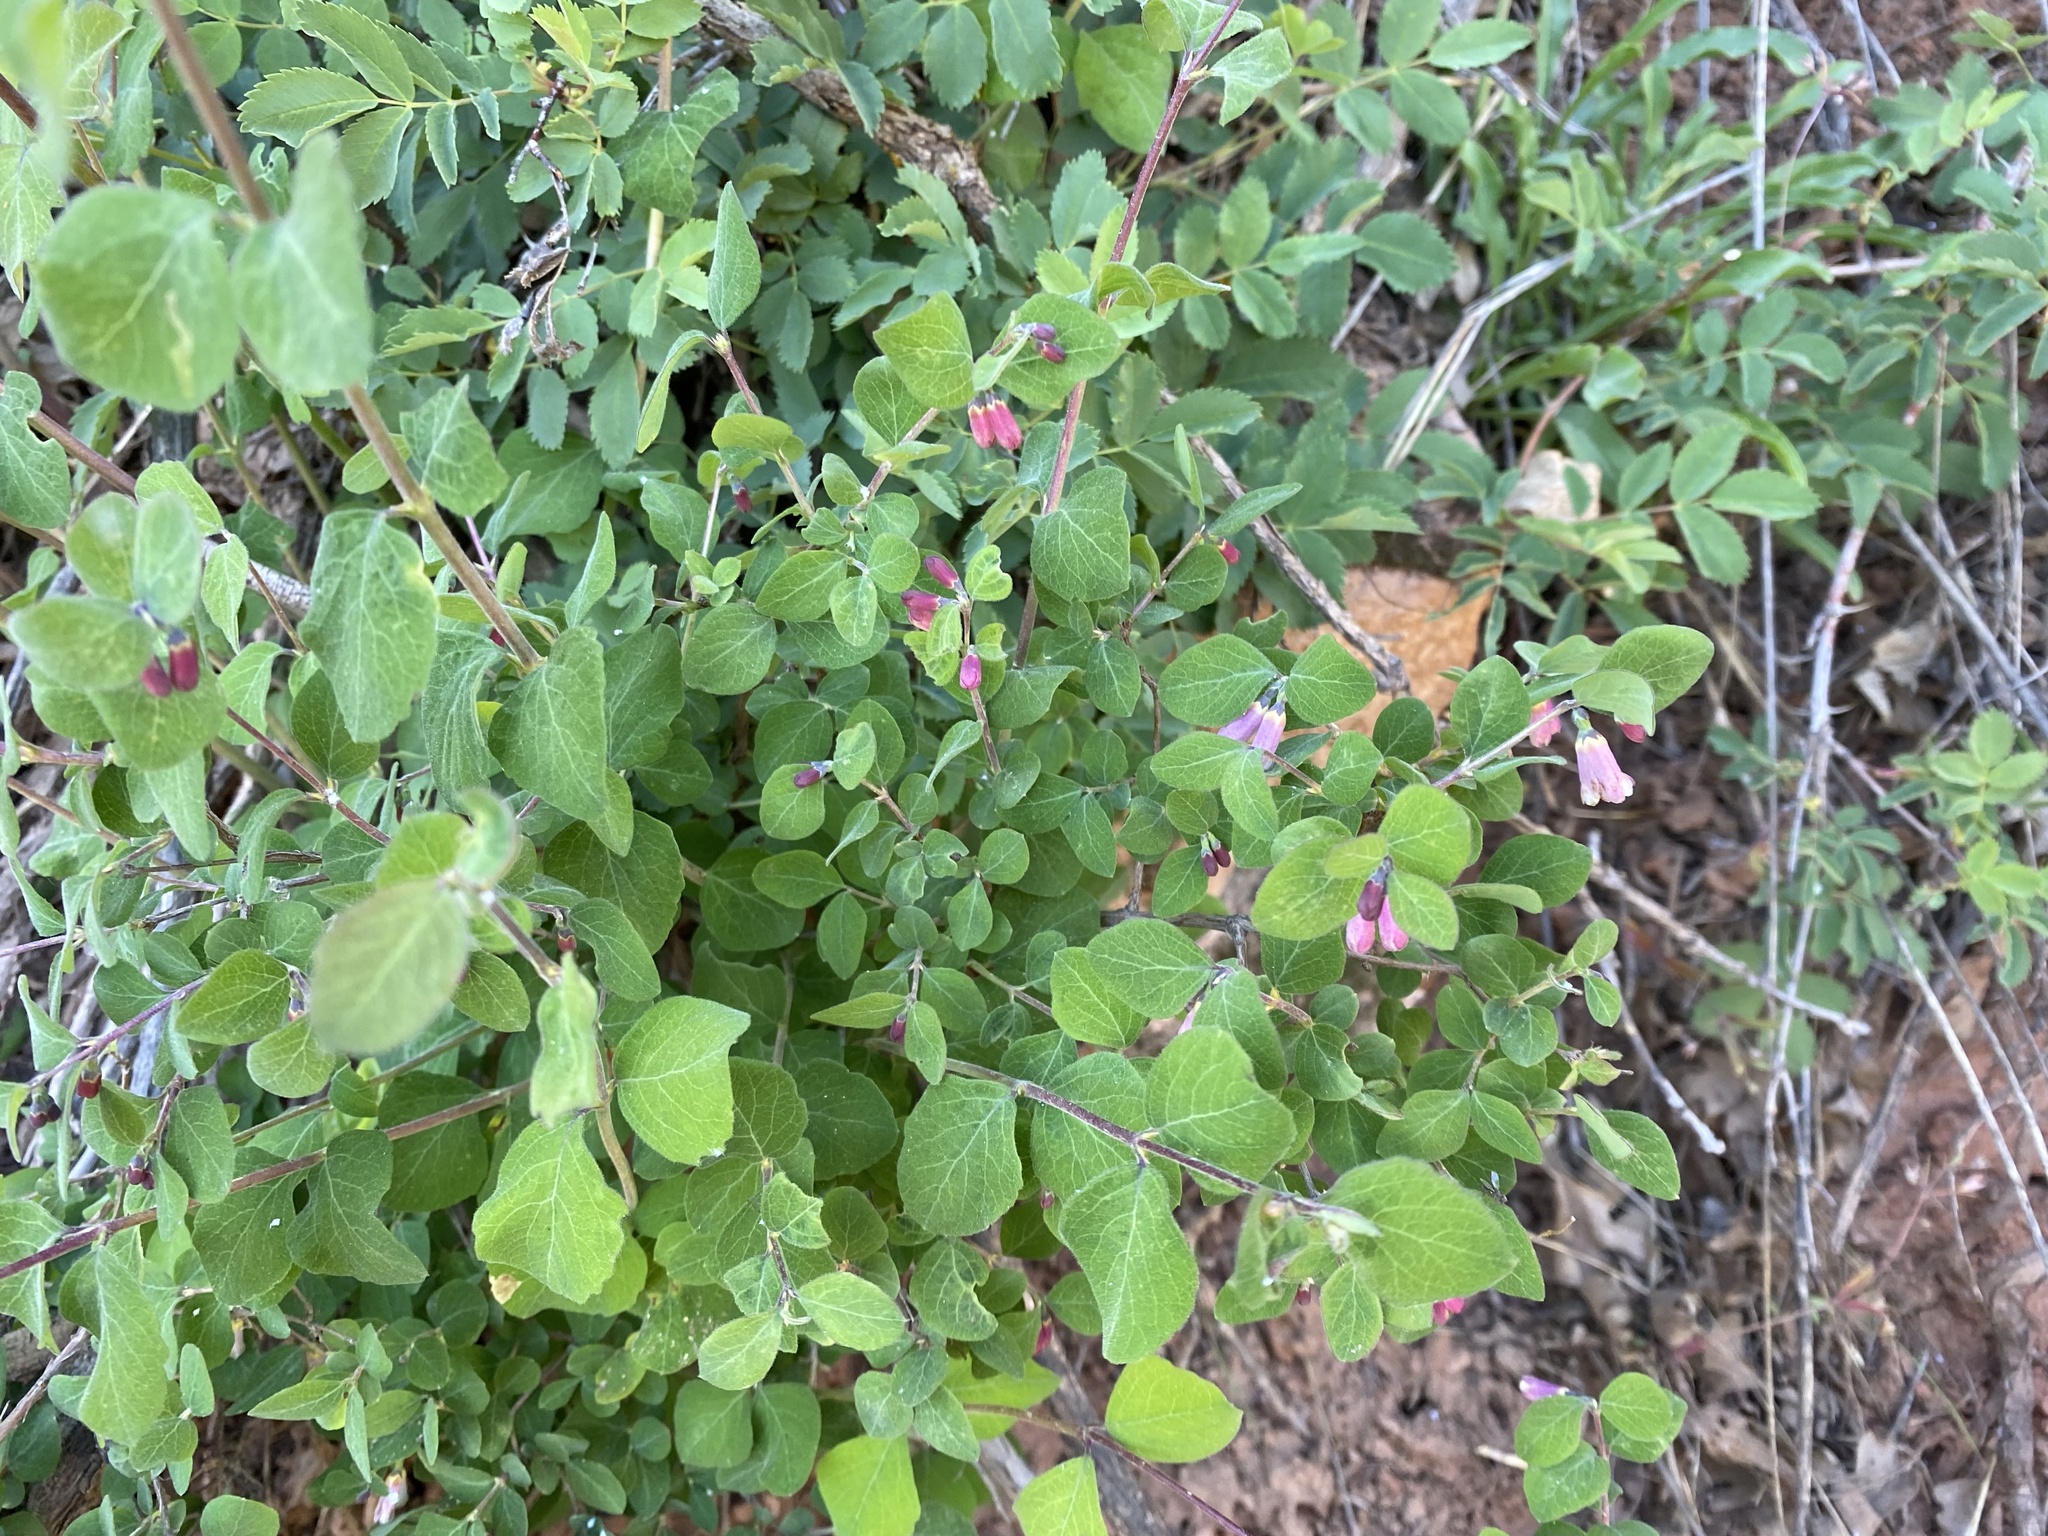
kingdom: Plantae
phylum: Tracheophyta
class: Magnoliopsida
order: Dipsacales
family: Caprifoliaceae
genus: Symphoricarpos
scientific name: Symphoricarpos rotundifolius
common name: Round-leaved snowberry
